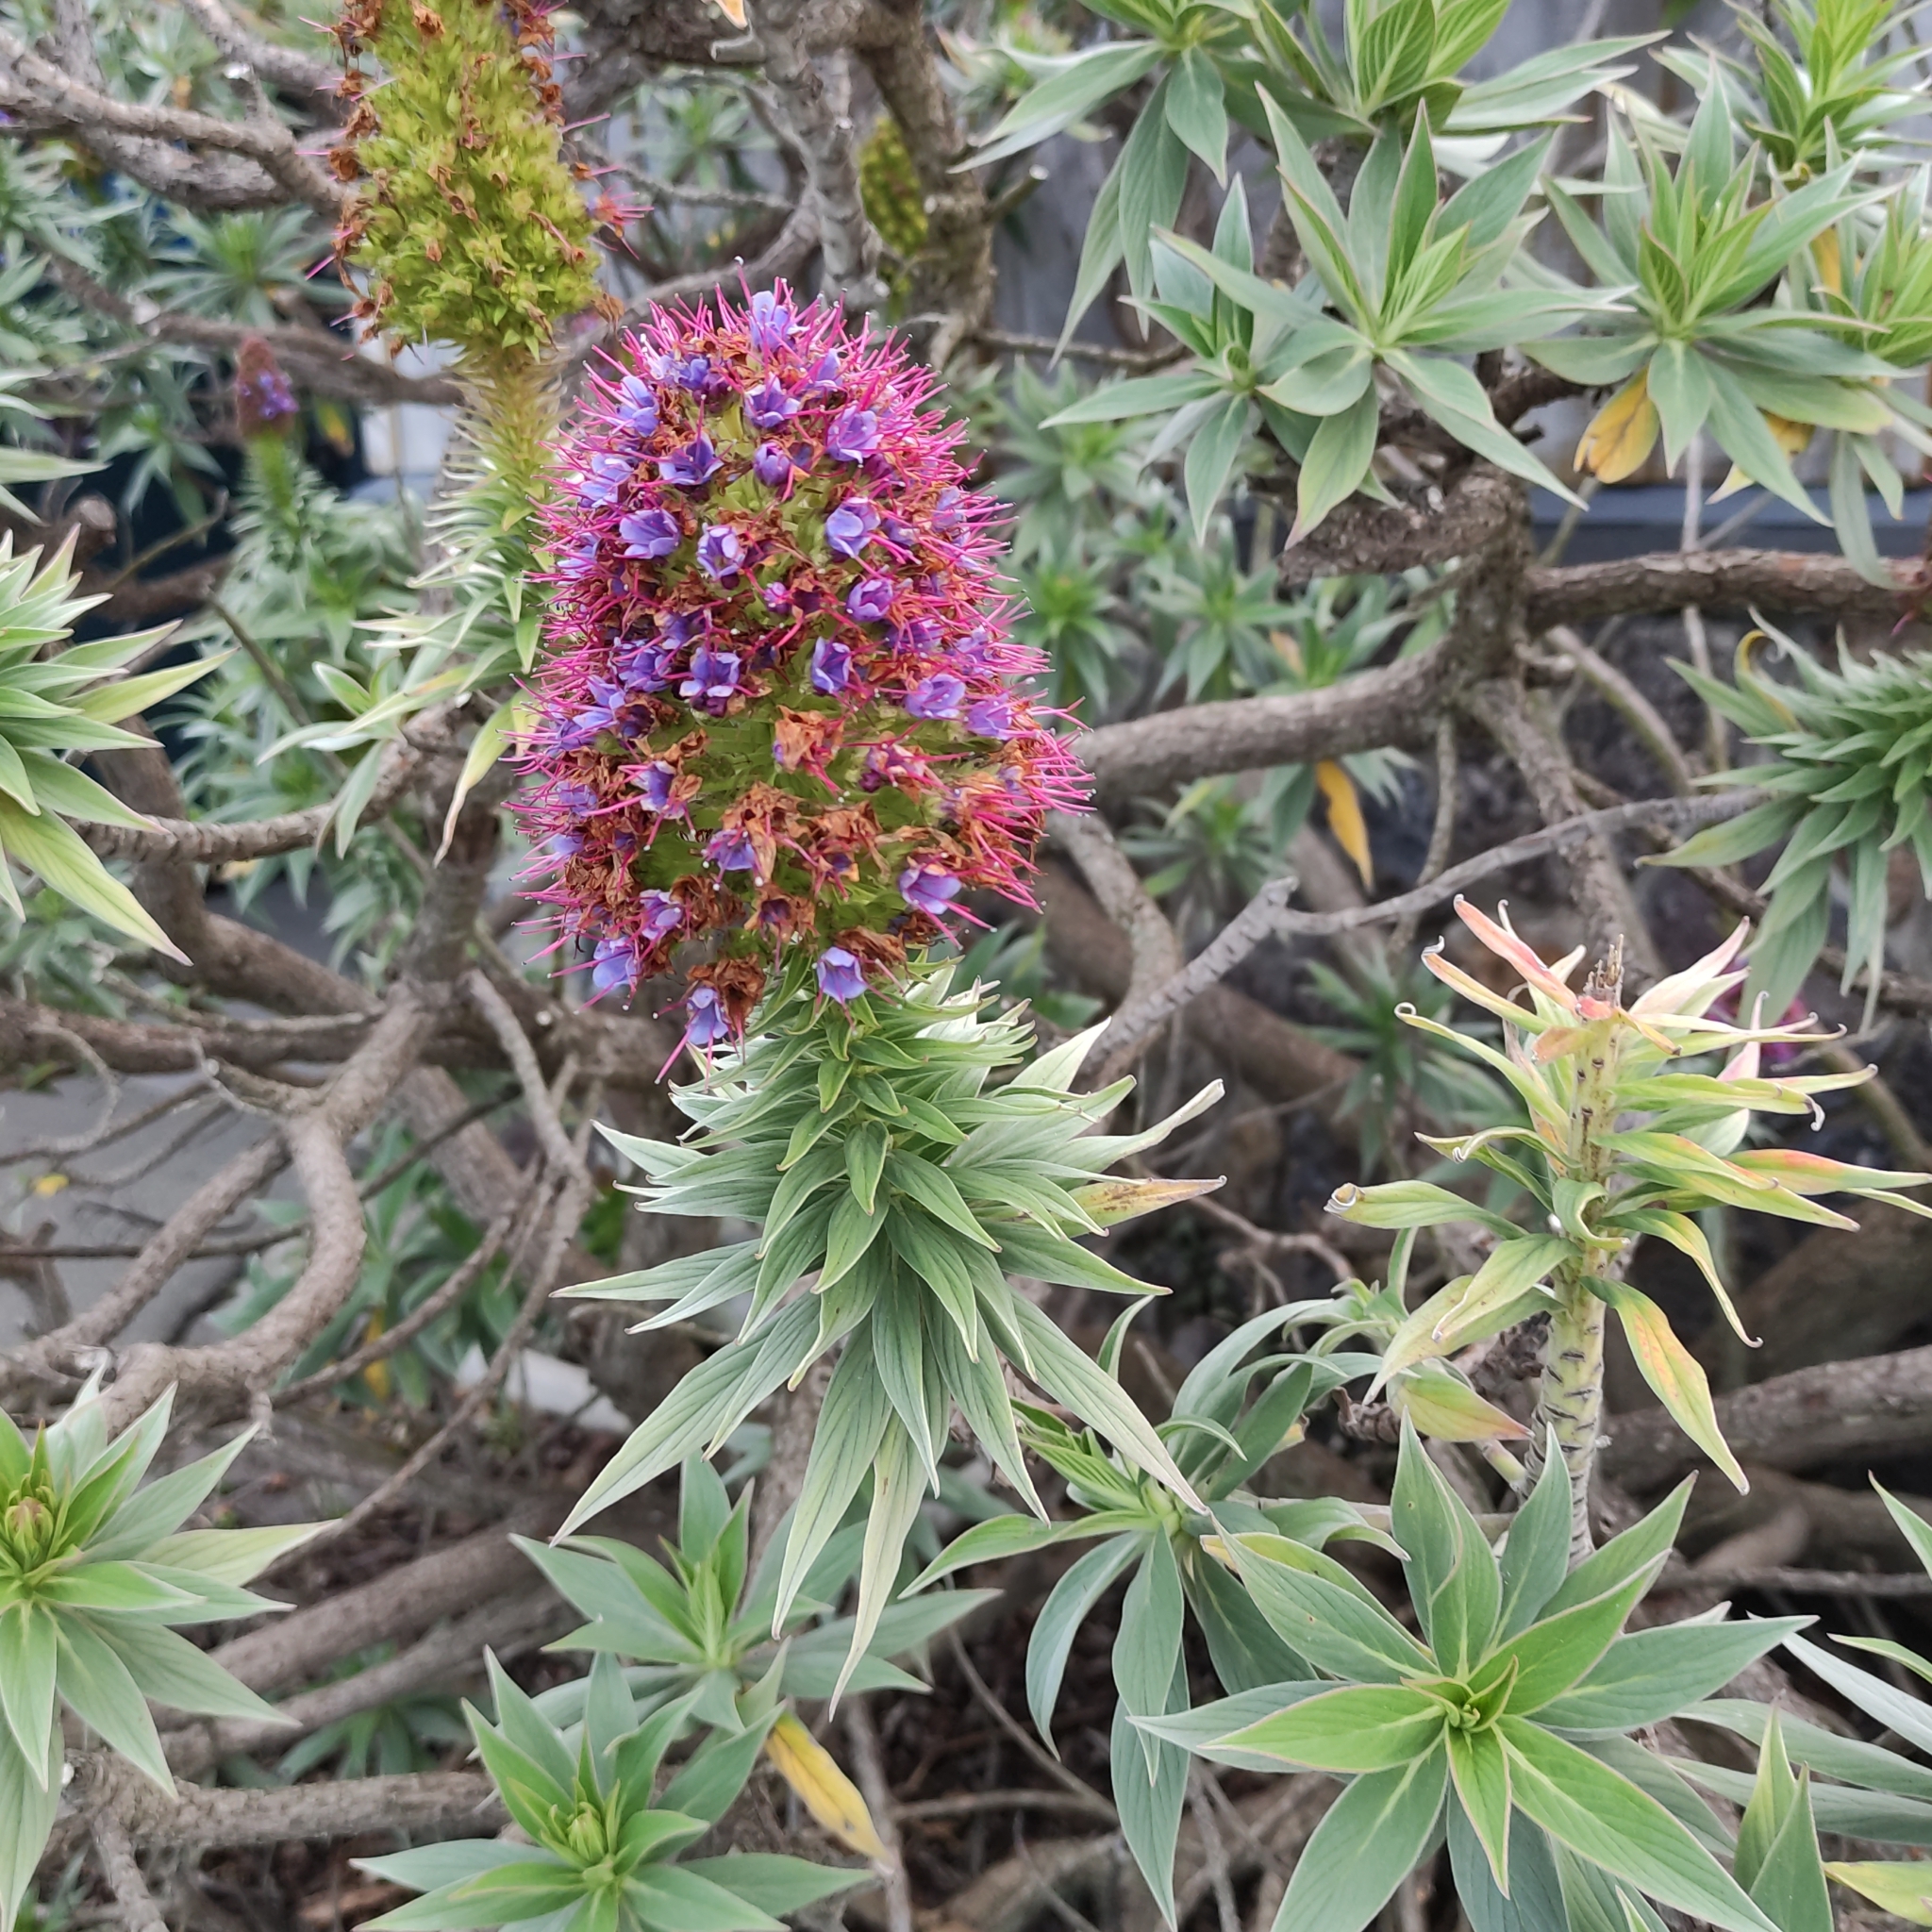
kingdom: Plantae
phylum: Tracheophyta
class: Magnoliopsida
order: Boraginales
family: Boraginaceae
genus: Echium
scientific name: Echium candicans
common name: Pride of madeira
